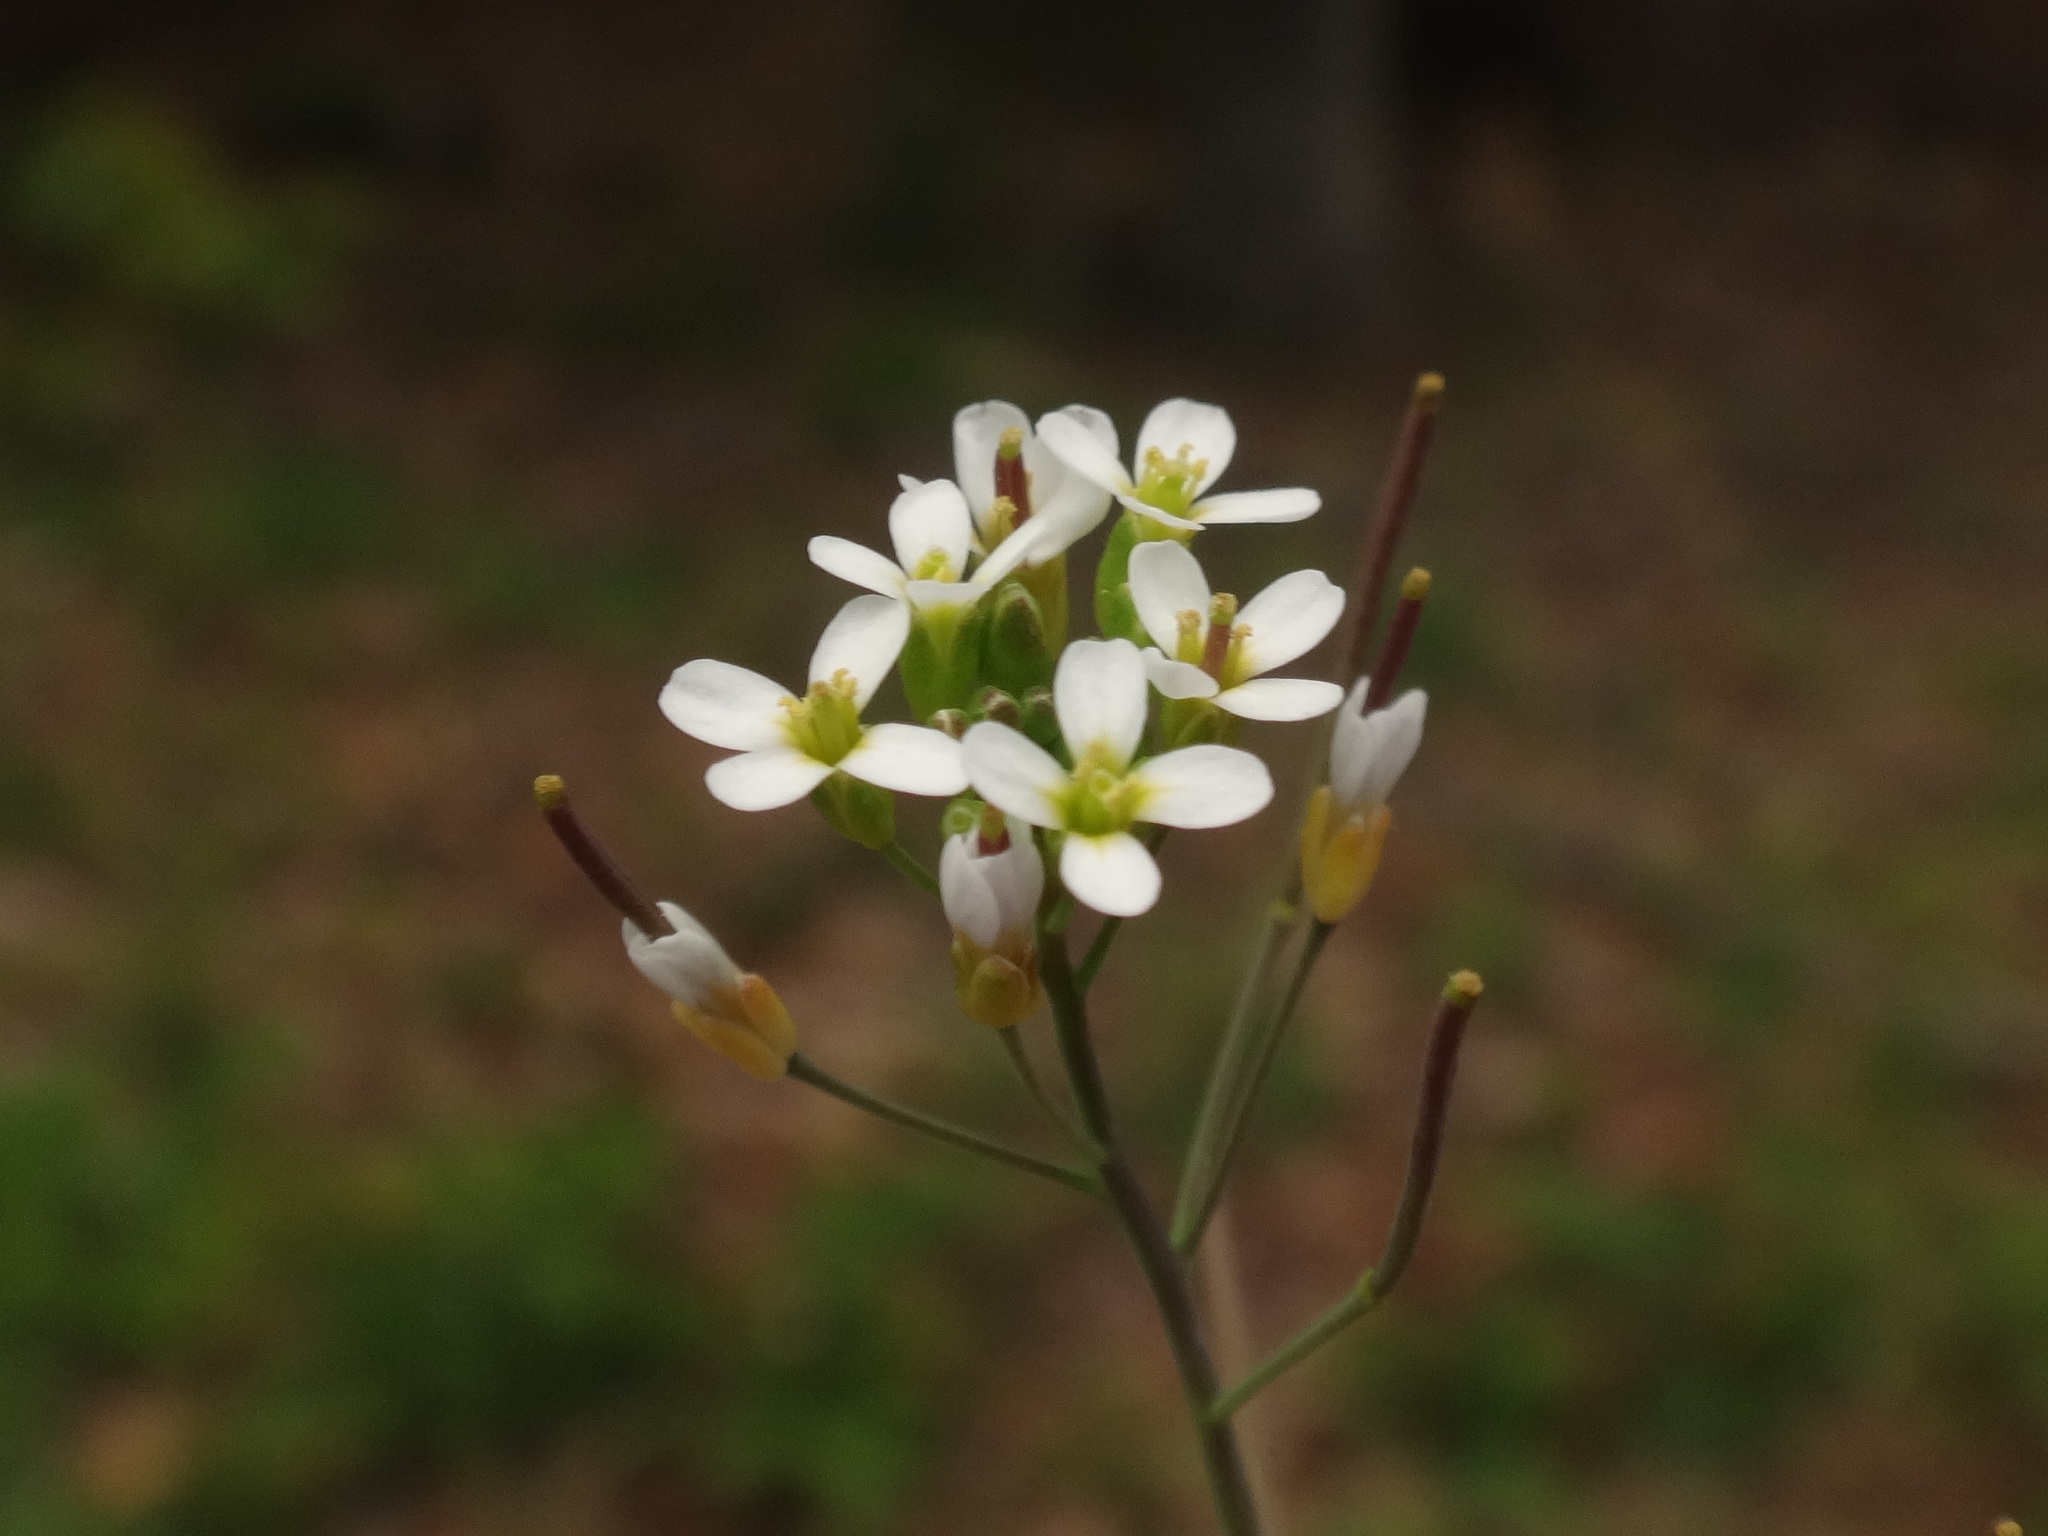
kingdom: Plantae
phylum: Tracheophyta
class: Magnoliopsida
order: Brassicales
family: Brassicaceae
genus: Arabidopsis
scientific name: Arabidopsis thaliana
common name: Thale cress
